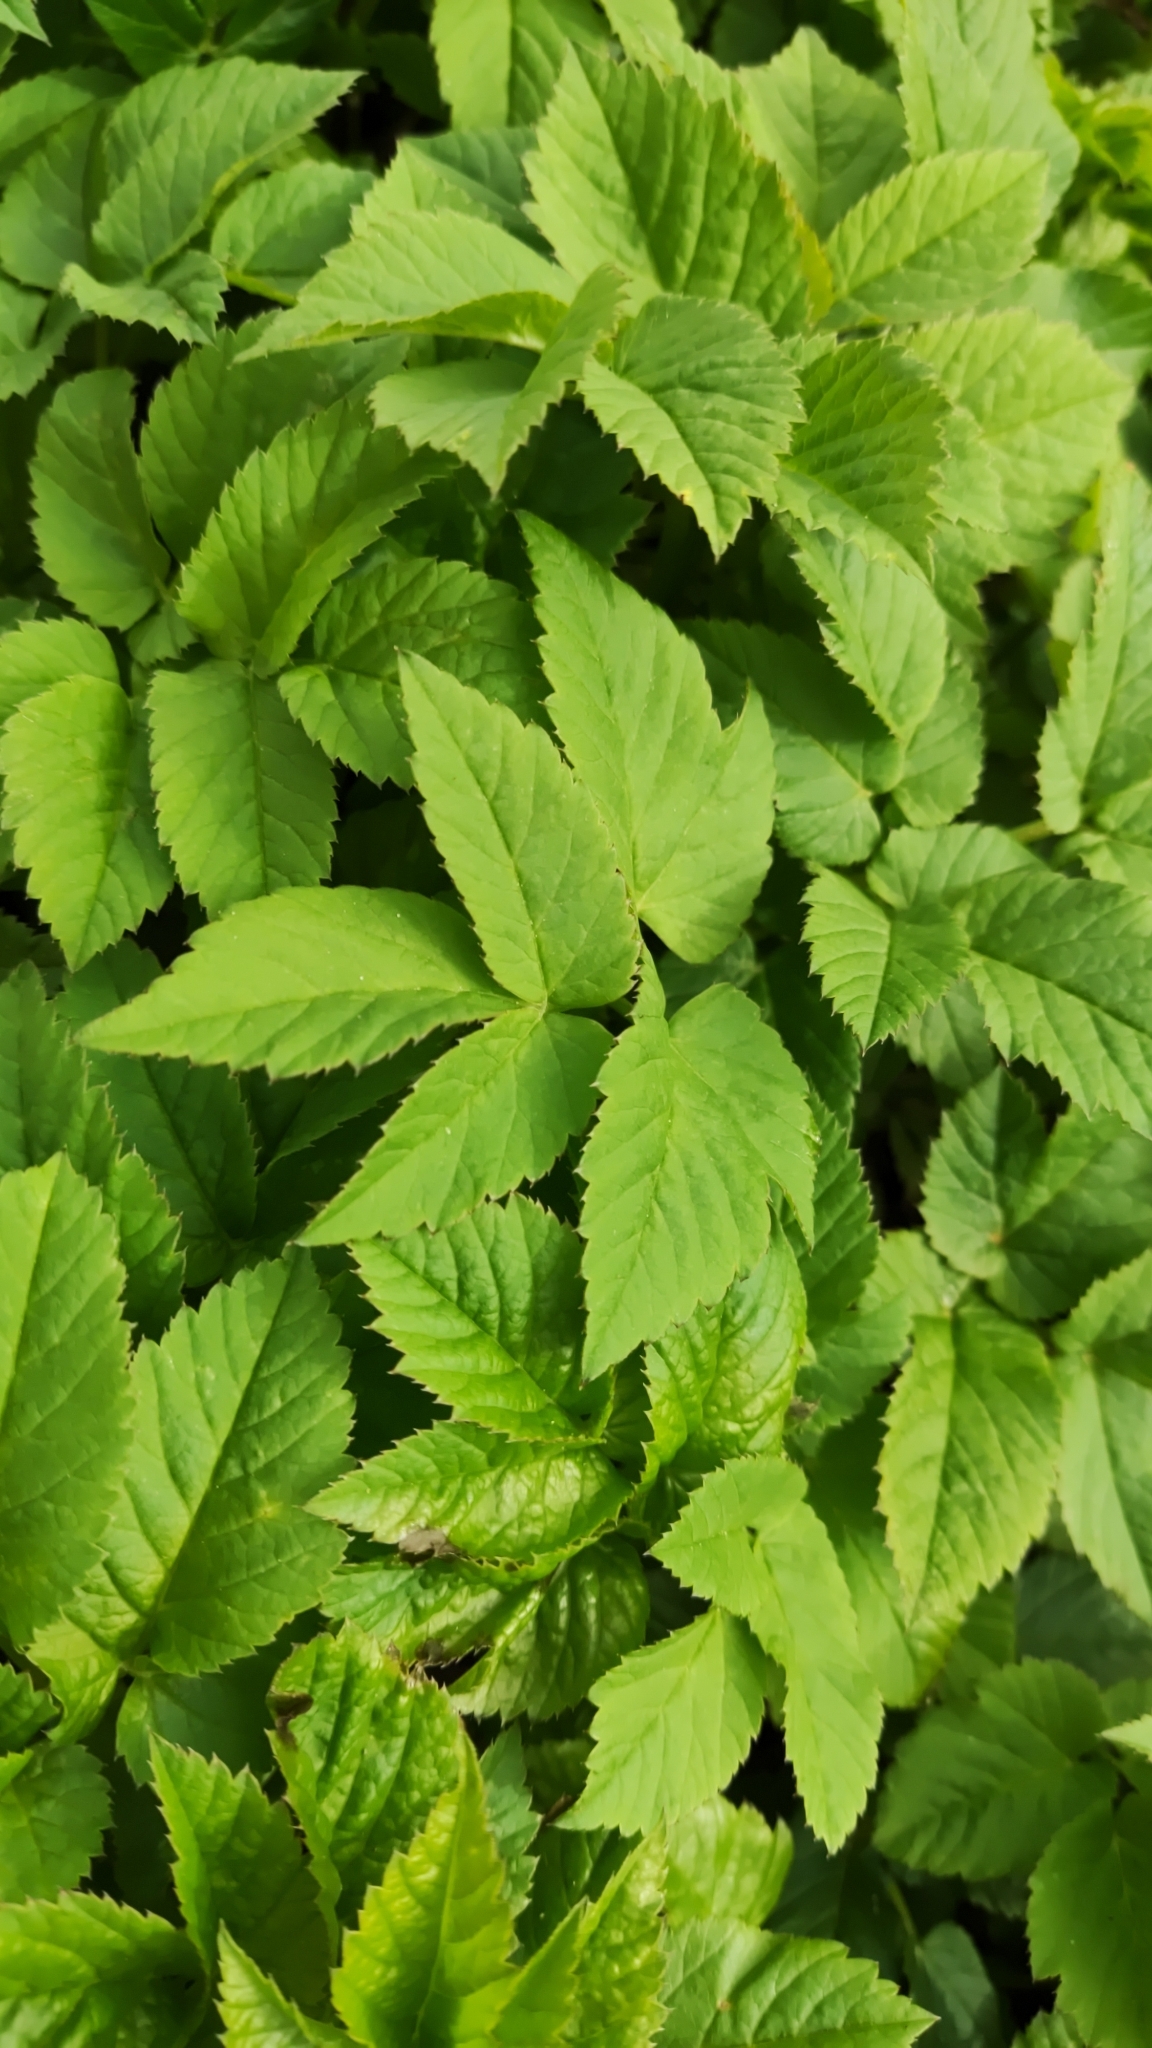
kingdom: Plantae
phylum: Tracheophyta
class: Magnoliopsida
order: Apiales
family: Apiaceae
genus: Aegopodium
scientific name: Aegopodium podagraria
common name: Ground-elder
